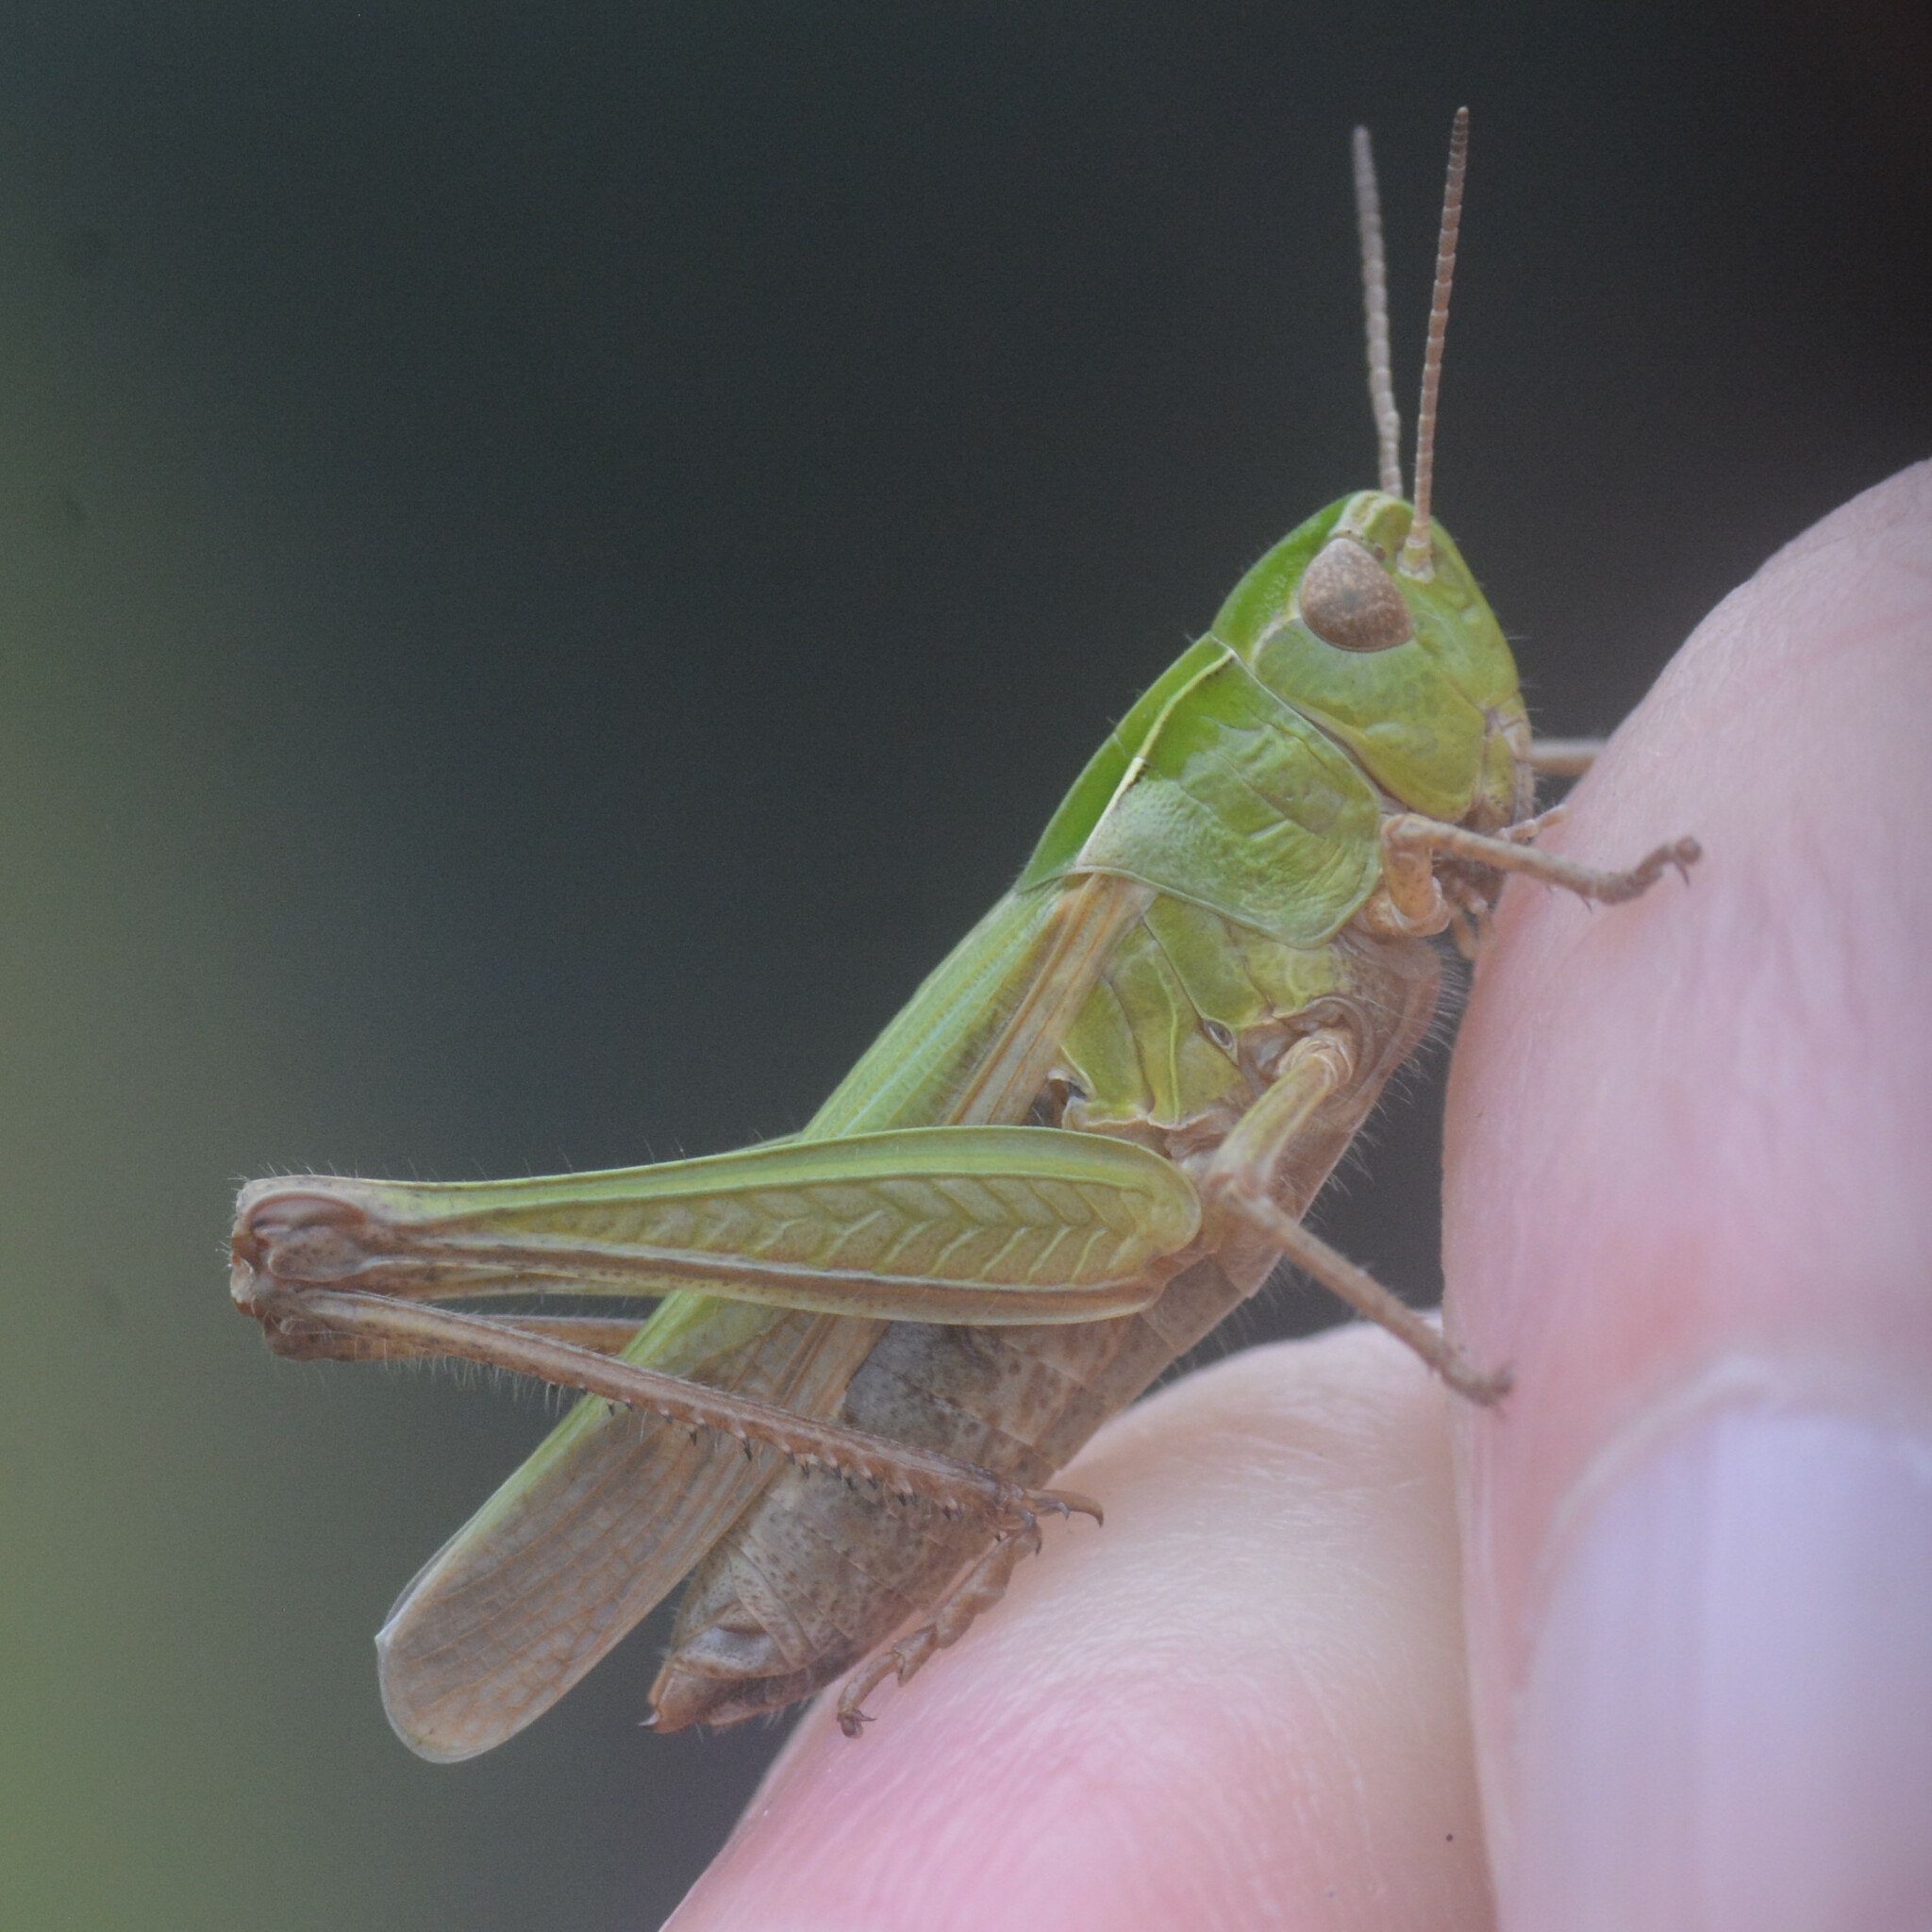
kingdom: Animalia
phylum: Arthropoda
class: Insecta
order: Orthoptera
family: Acrididae
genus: Omocestus
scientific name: Omocestus viridulus
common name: Common green grasshopper
